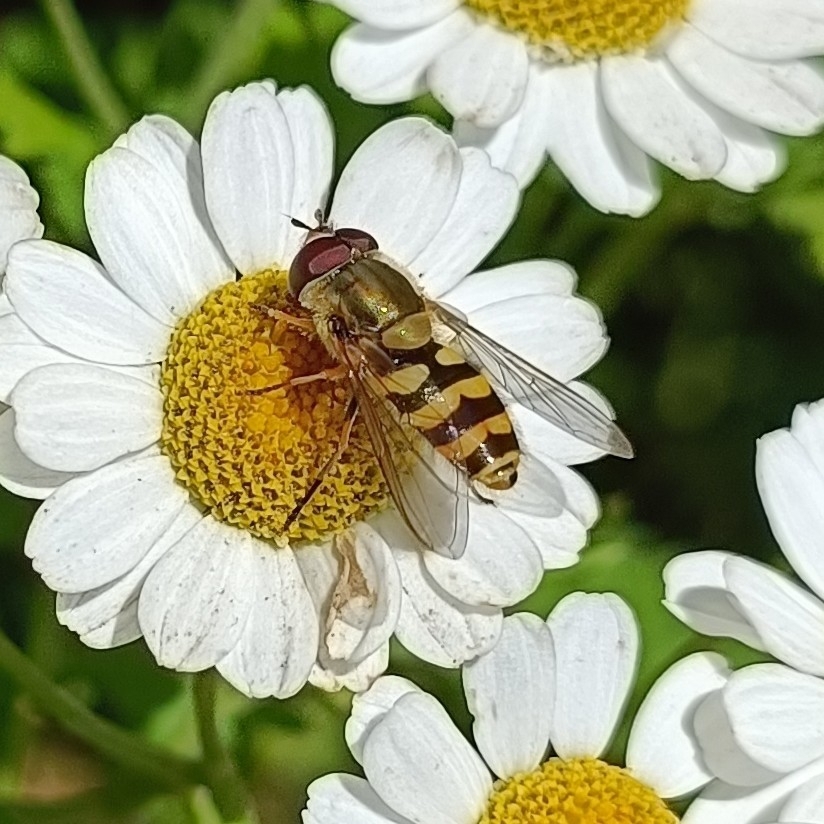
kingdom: Animalia
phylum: Arthropoda
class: Insecta
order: Diptera
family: Syrphidae
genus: Syrphus
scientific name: Syrphus
